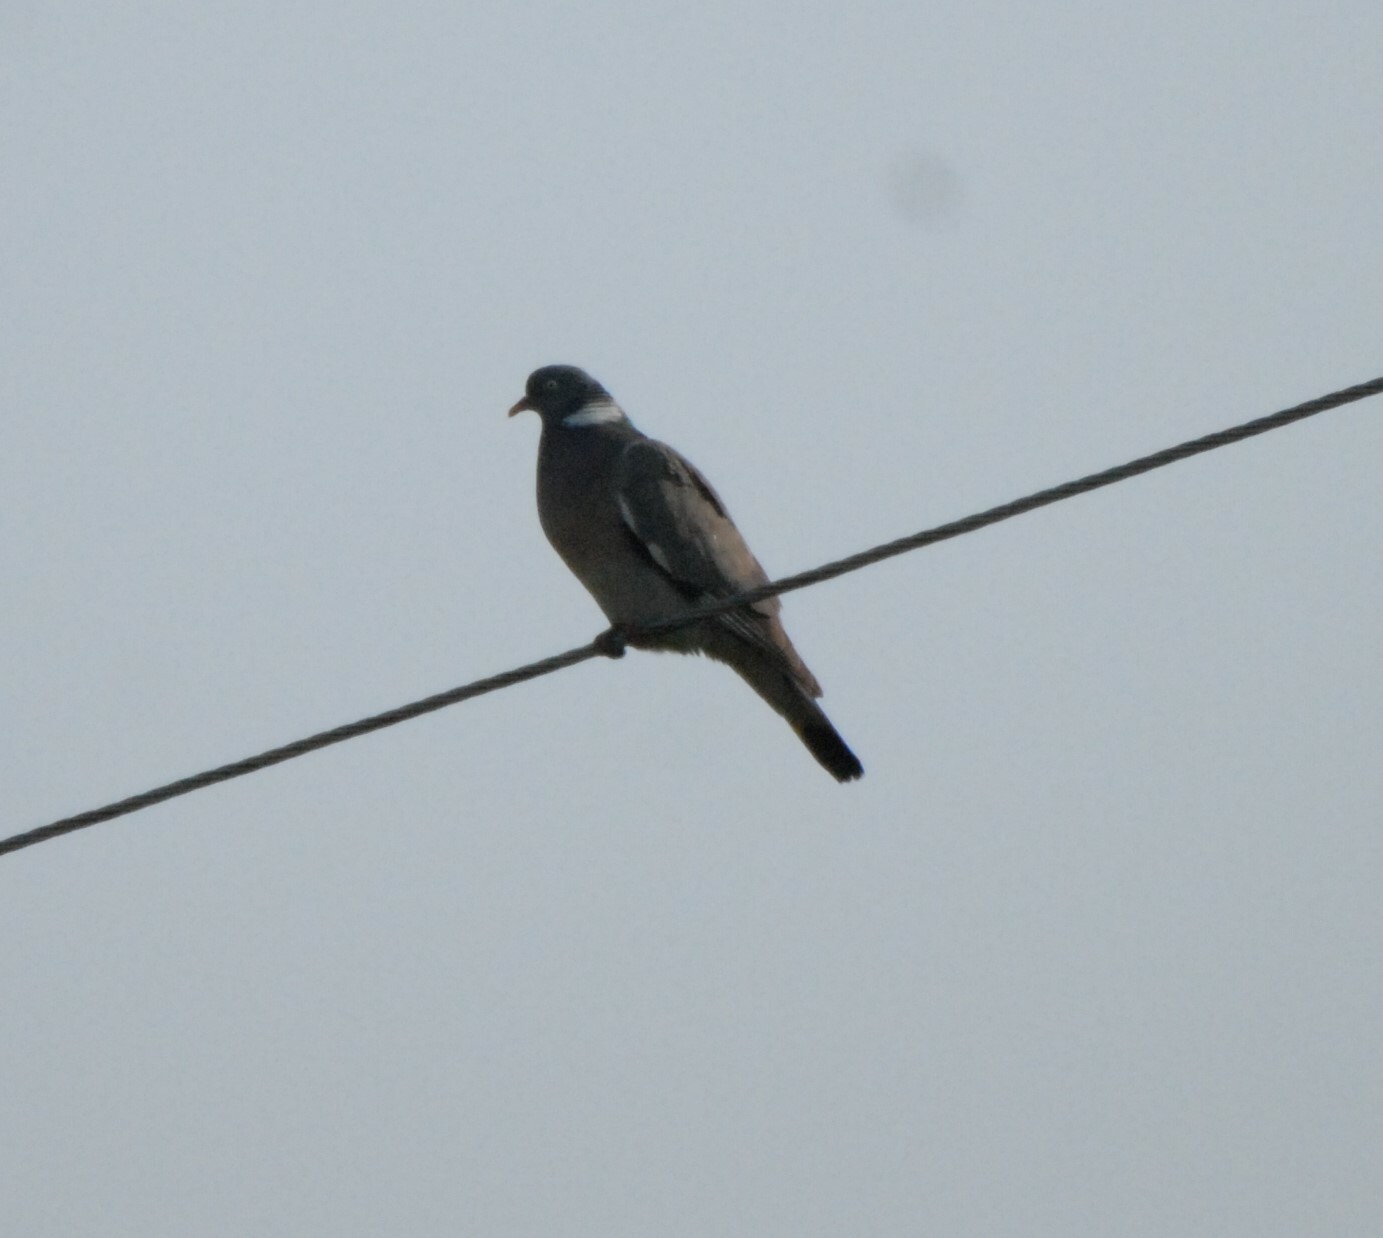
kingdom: Animalia
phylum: Chordata
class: Aves
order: Columbiformes
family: Columbidae
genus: Columba
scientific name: Columba palumbus
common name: Common wood pigeon
